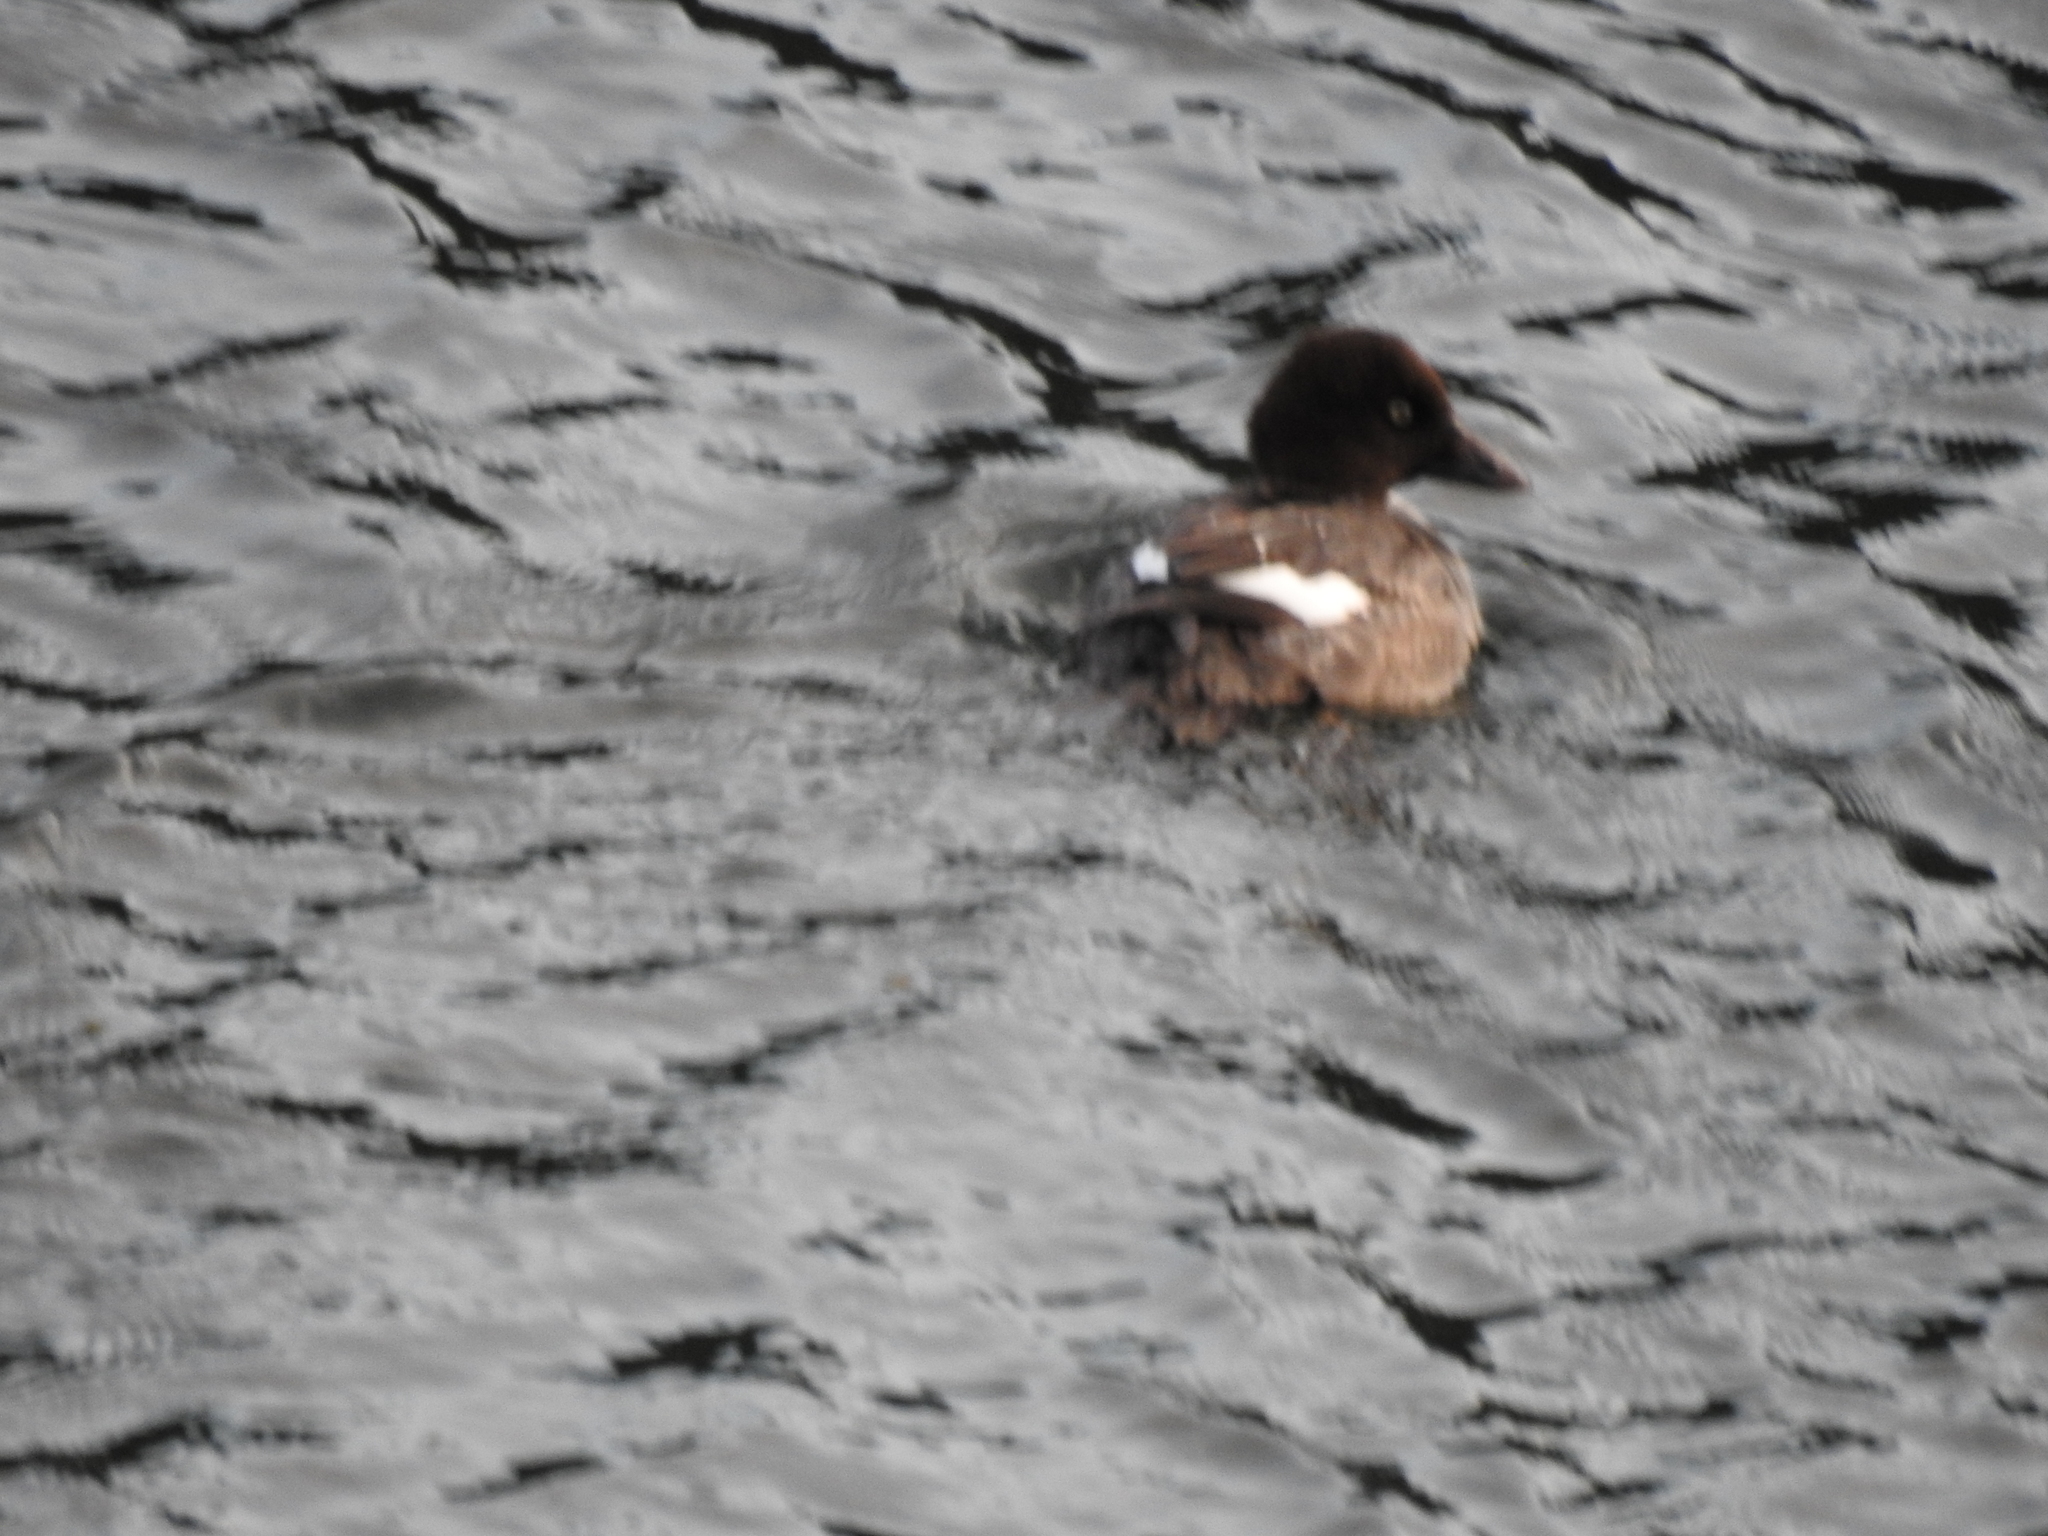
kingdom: Animalia
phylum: Chordata
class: Aves
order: Anseriformes
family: Anatidae
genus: Bucephala
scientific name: Bucephala clangula
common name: Common goldeneye
